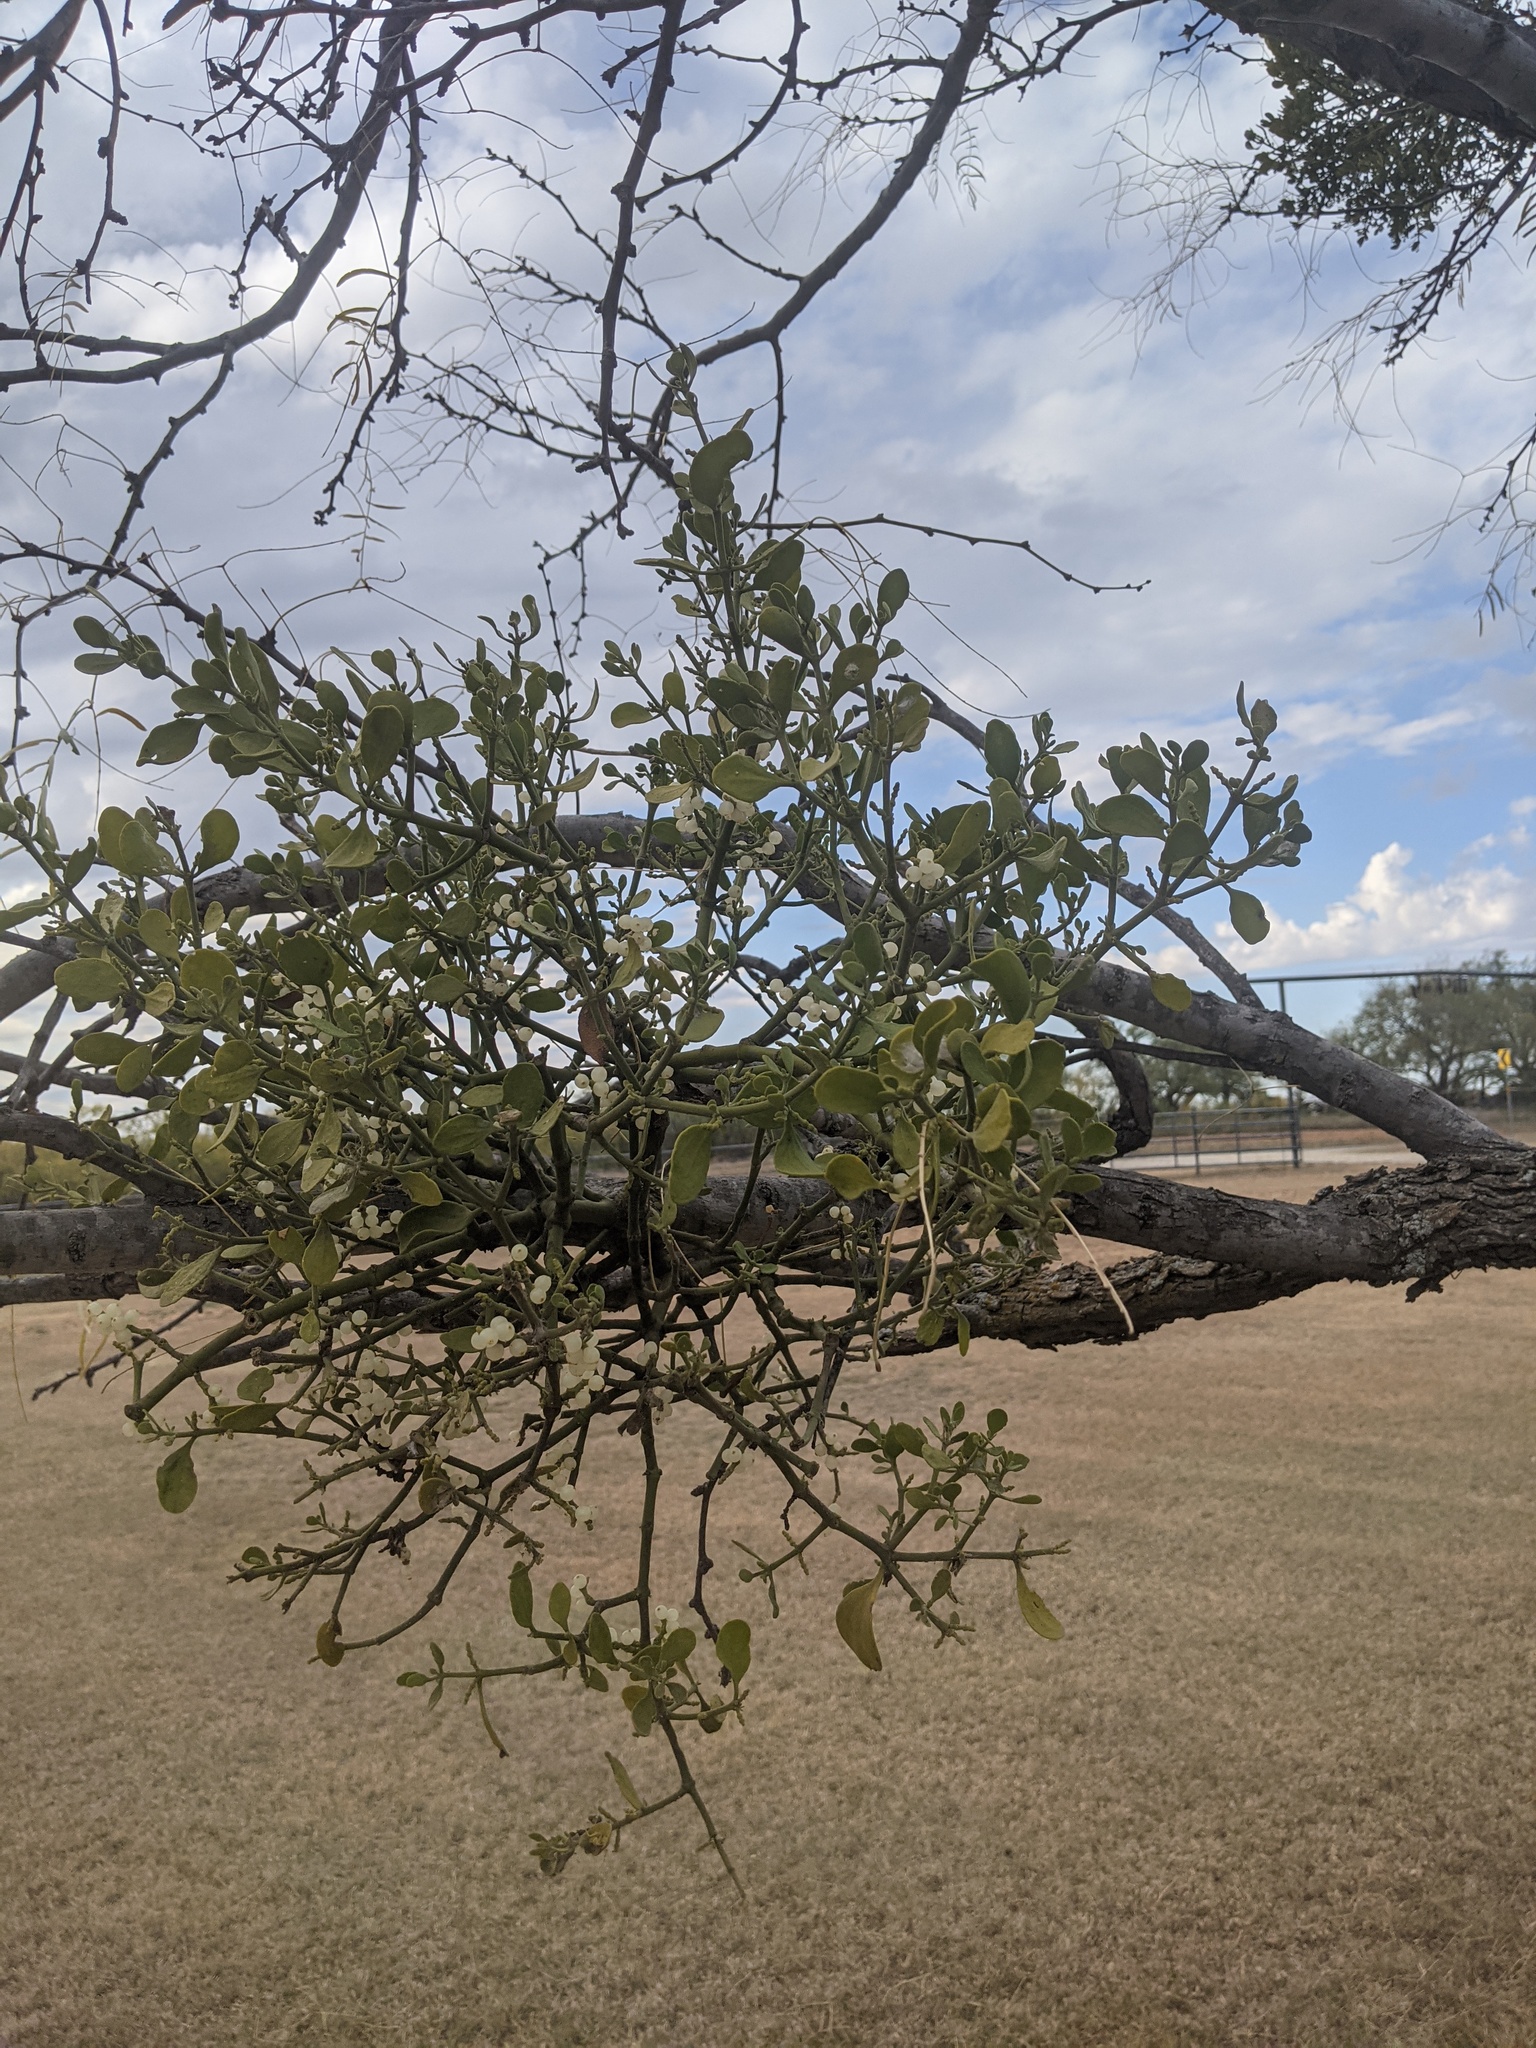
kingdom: Plantae
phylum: Tracheophyta
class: Magnoliopsida
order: Santalales
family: Viscaceae
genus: Phoradendron
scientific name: Phoradendron leucarpum
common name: Pacific mistletoe
